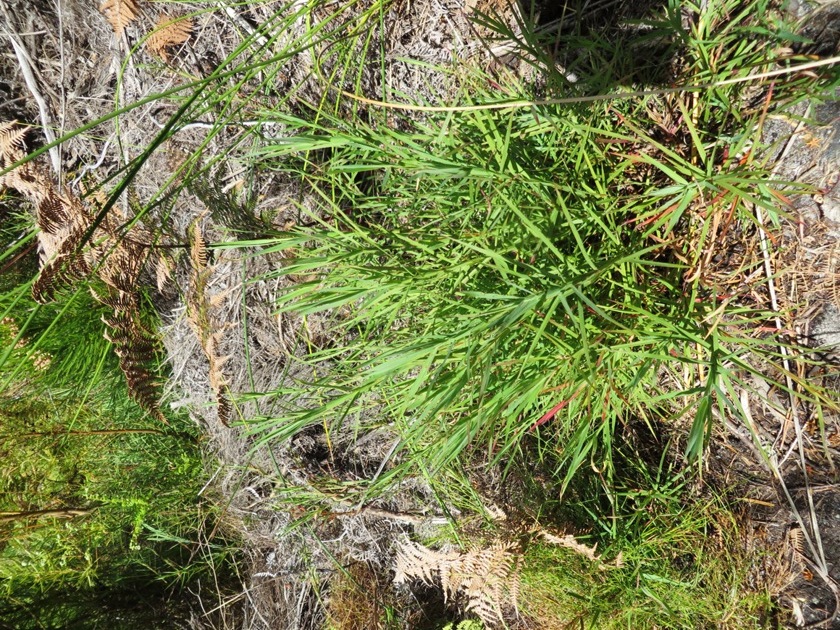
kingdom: Plantae
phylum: Tracheophyta
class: Magnoliopsida
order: Rosales
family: Rosaceae
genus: Cliffortia
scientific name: Cliffortia graminea
